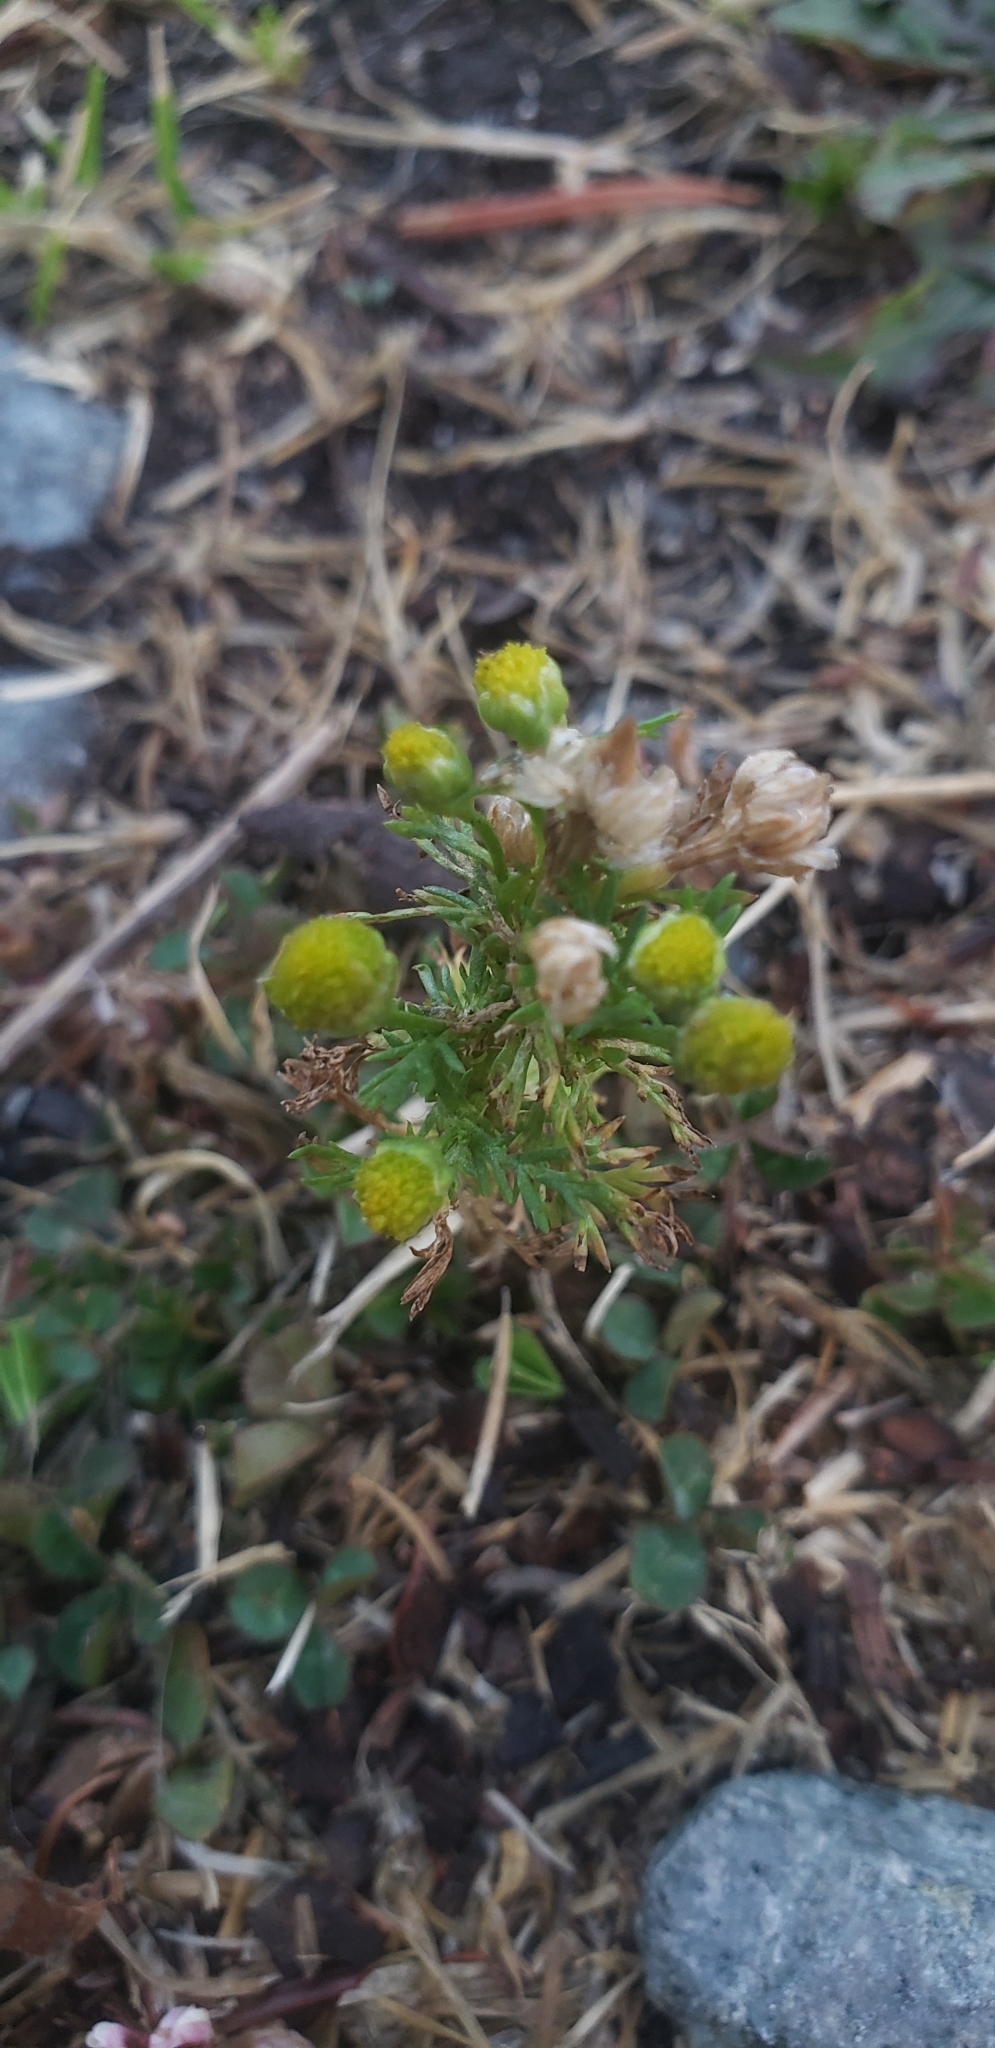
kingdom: Plantae
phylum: Tracheophyta
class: Magnoliopsida
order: Asterales
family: Asteraceae
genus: Matricaria
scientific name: Matricaria discoidea
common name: Disc mayweed
